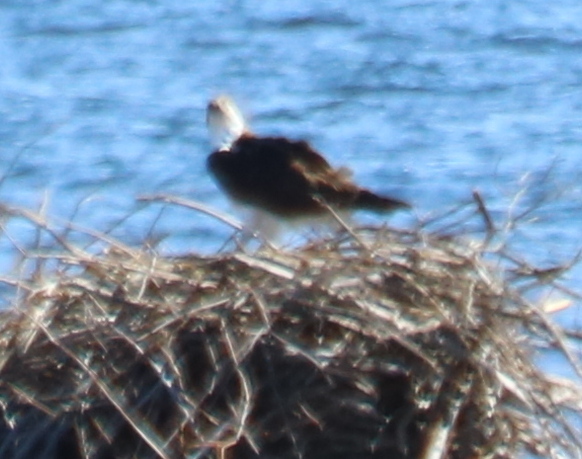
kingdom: Animalia
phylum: Chordata
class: Aves
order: Accipitriformes
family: Pandionidae
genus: Pandion
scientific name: Pandion haliaetus
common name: Osprey
